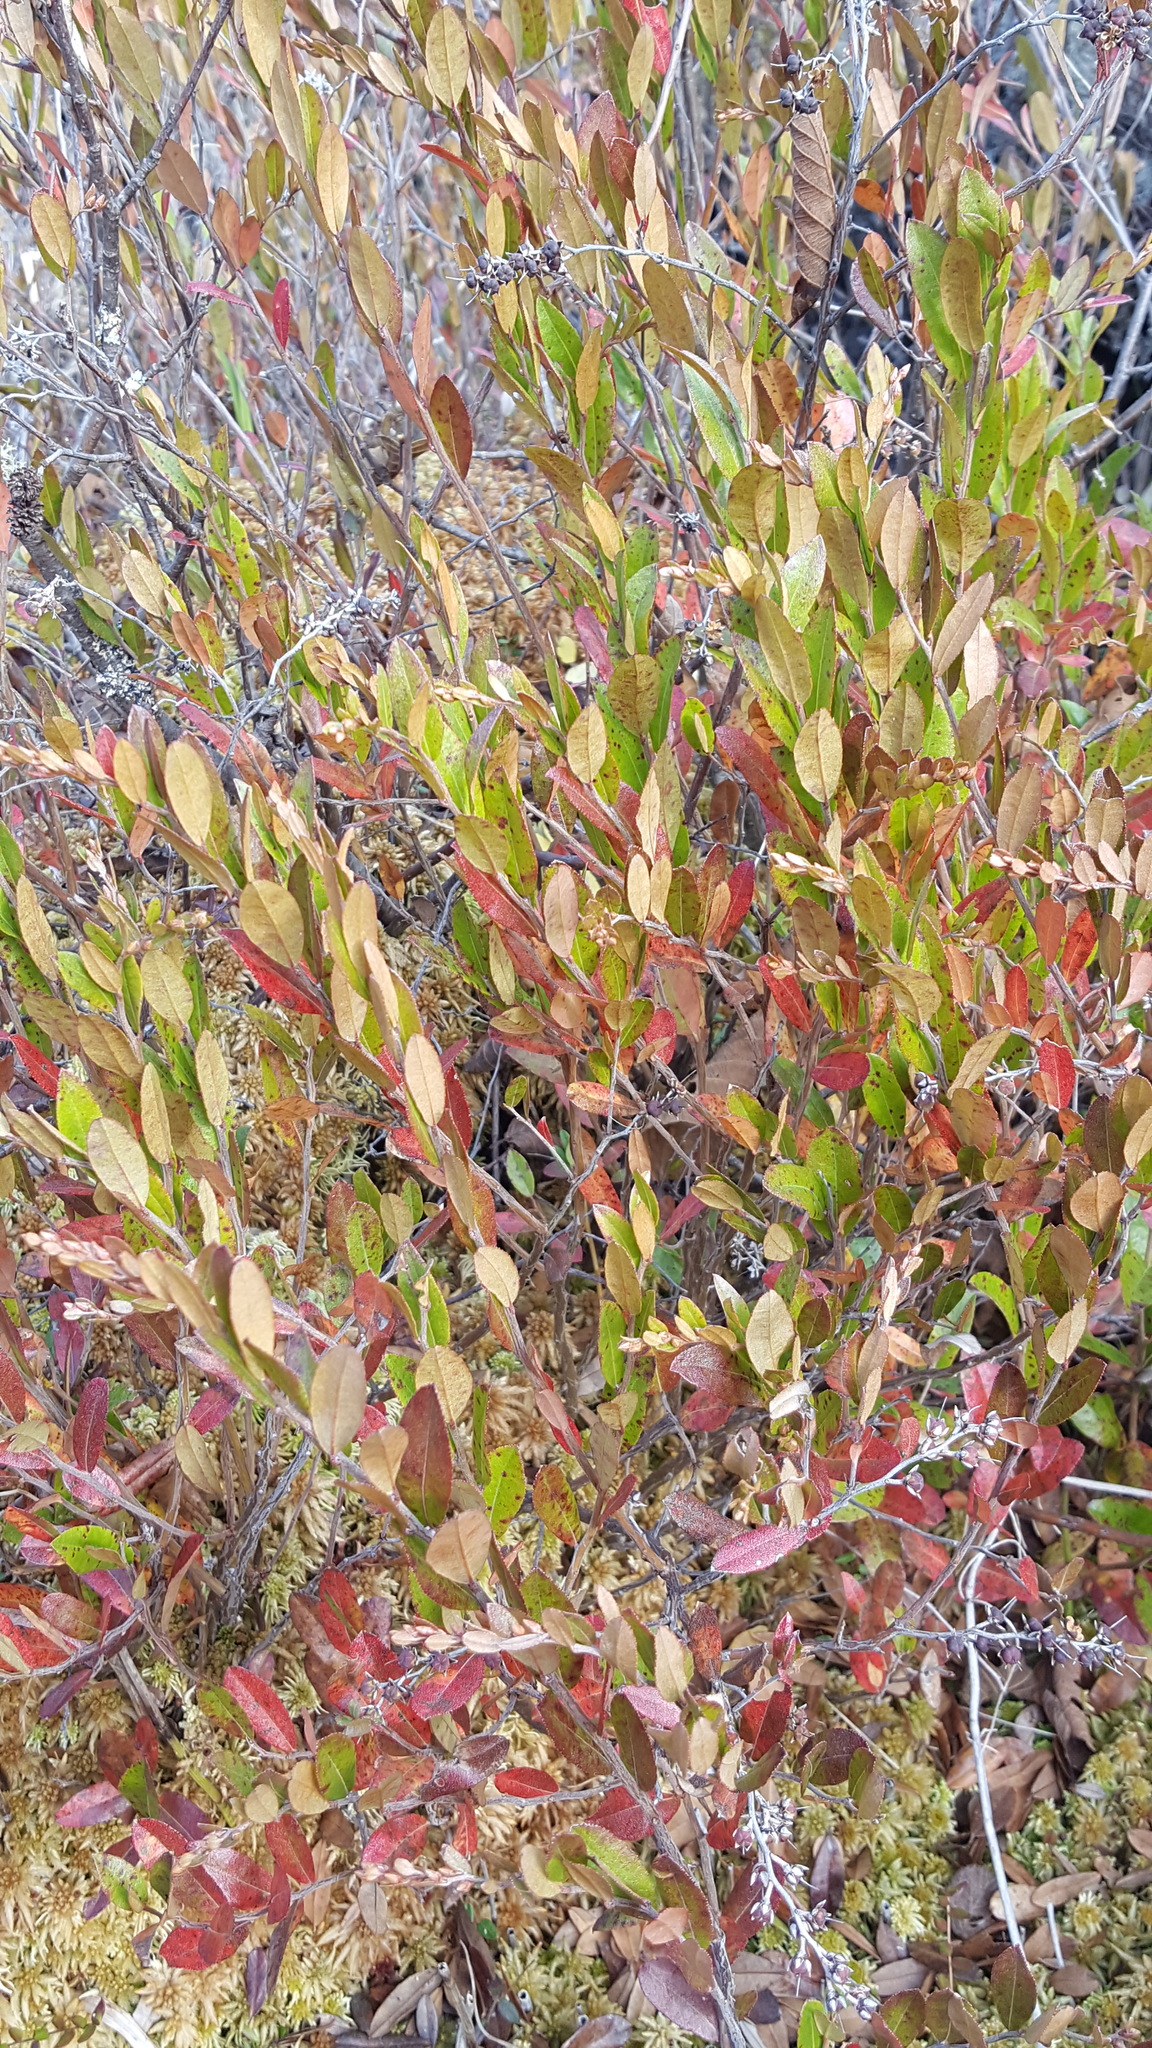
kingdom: Plantae
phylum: Tracheophyta
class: Magnoliopsida
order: Ericales
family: Ericaceae
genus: Chamaedaphne
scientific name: Chamaedaphne calyculata
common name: Leatherleaf
